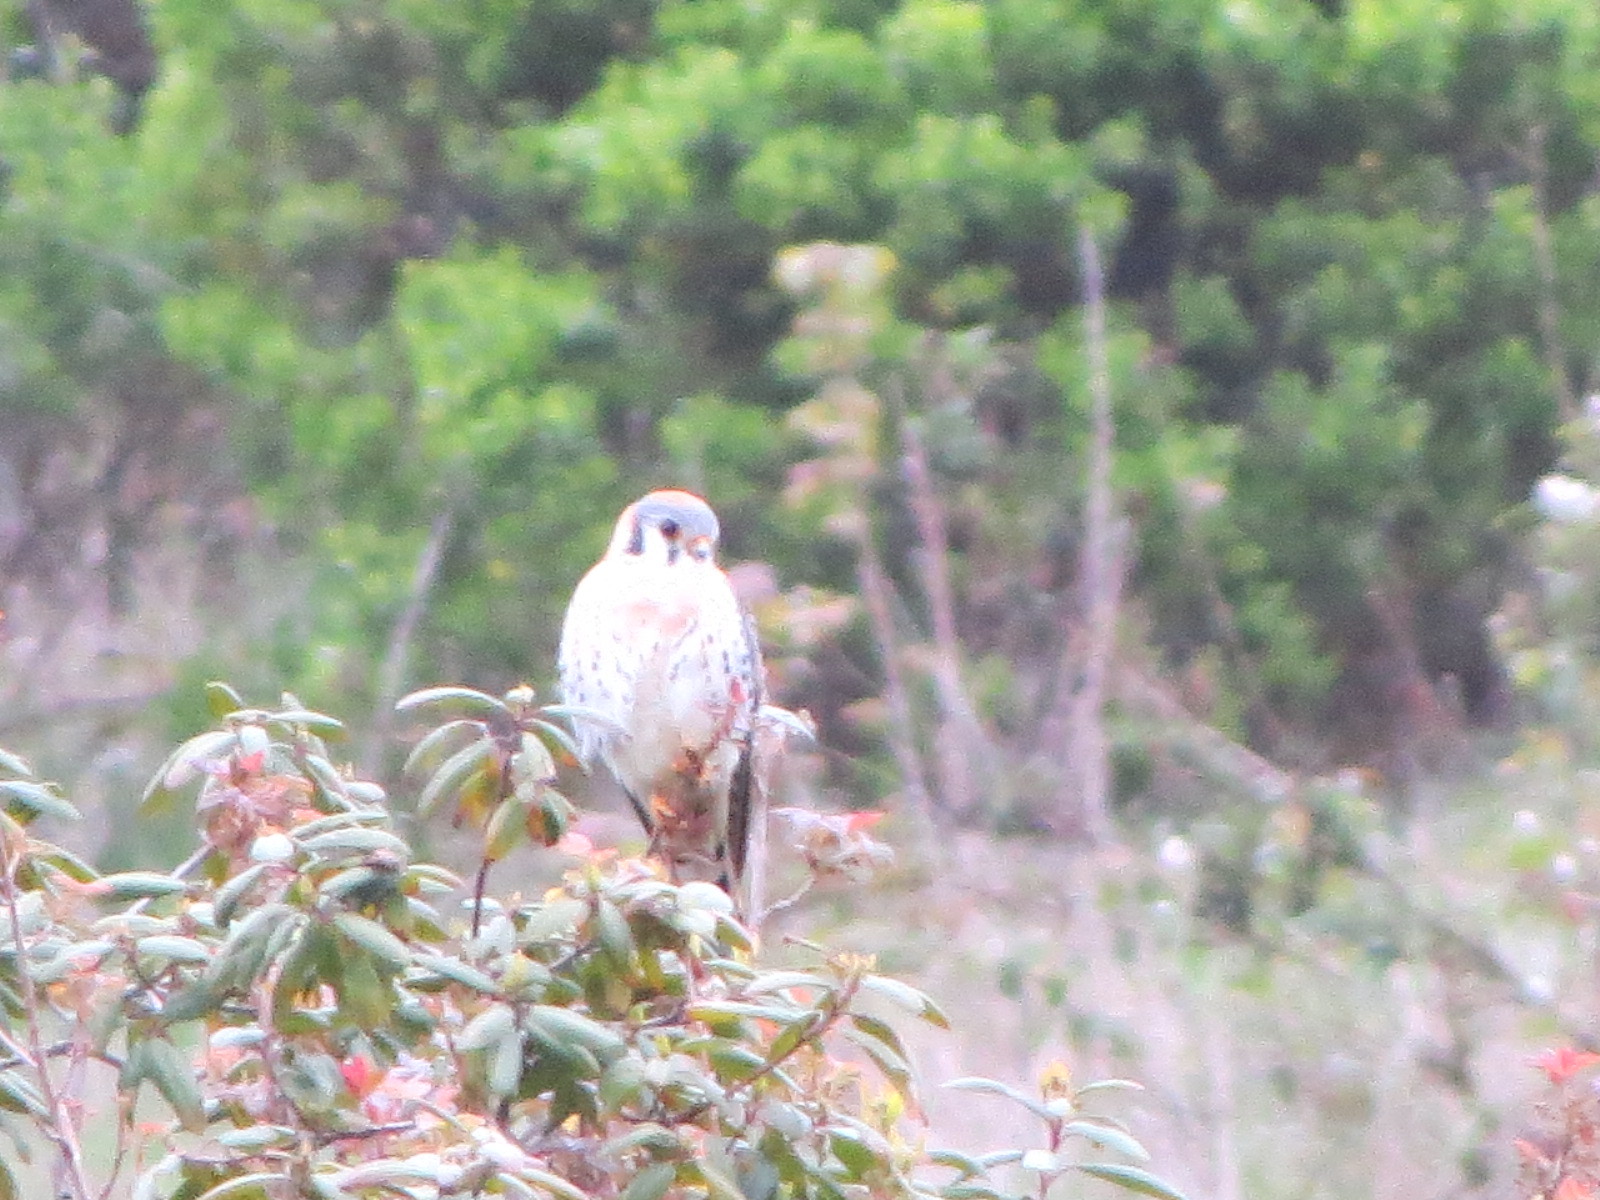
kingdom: Animalia
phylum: Chordata
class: Aves
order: Falconiformes
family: Falconidae
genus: Falco
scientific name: Falco sparverius
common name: American kestrel
